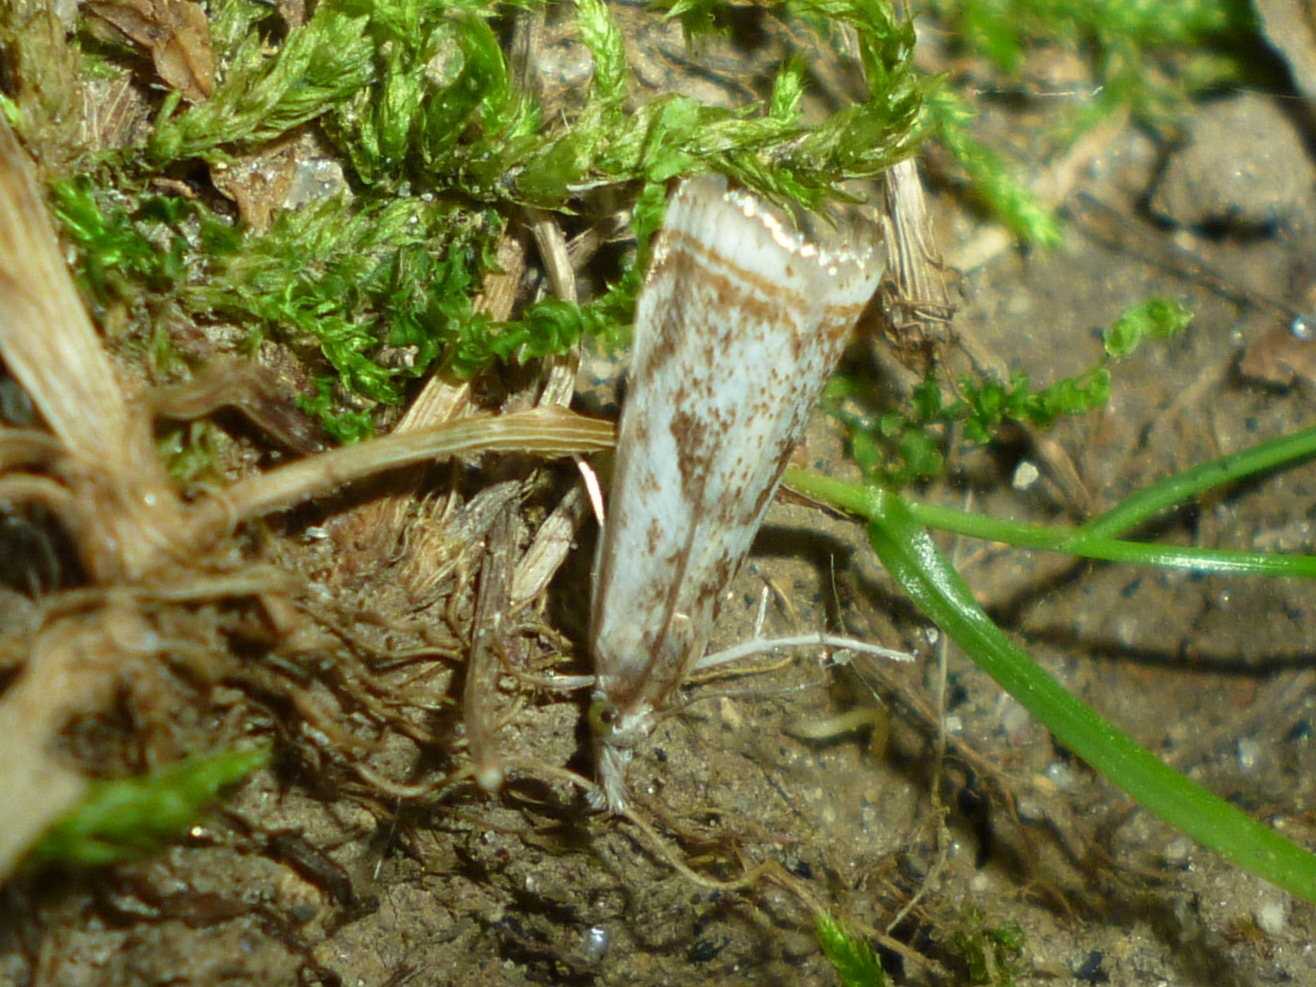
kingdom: Animalia
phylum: Arthropoda
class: Insecta
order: Lepidoptera
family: Crambidae
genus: Microcrambus
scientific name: Microcrambus elegans
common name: Elegant grass-veneer
